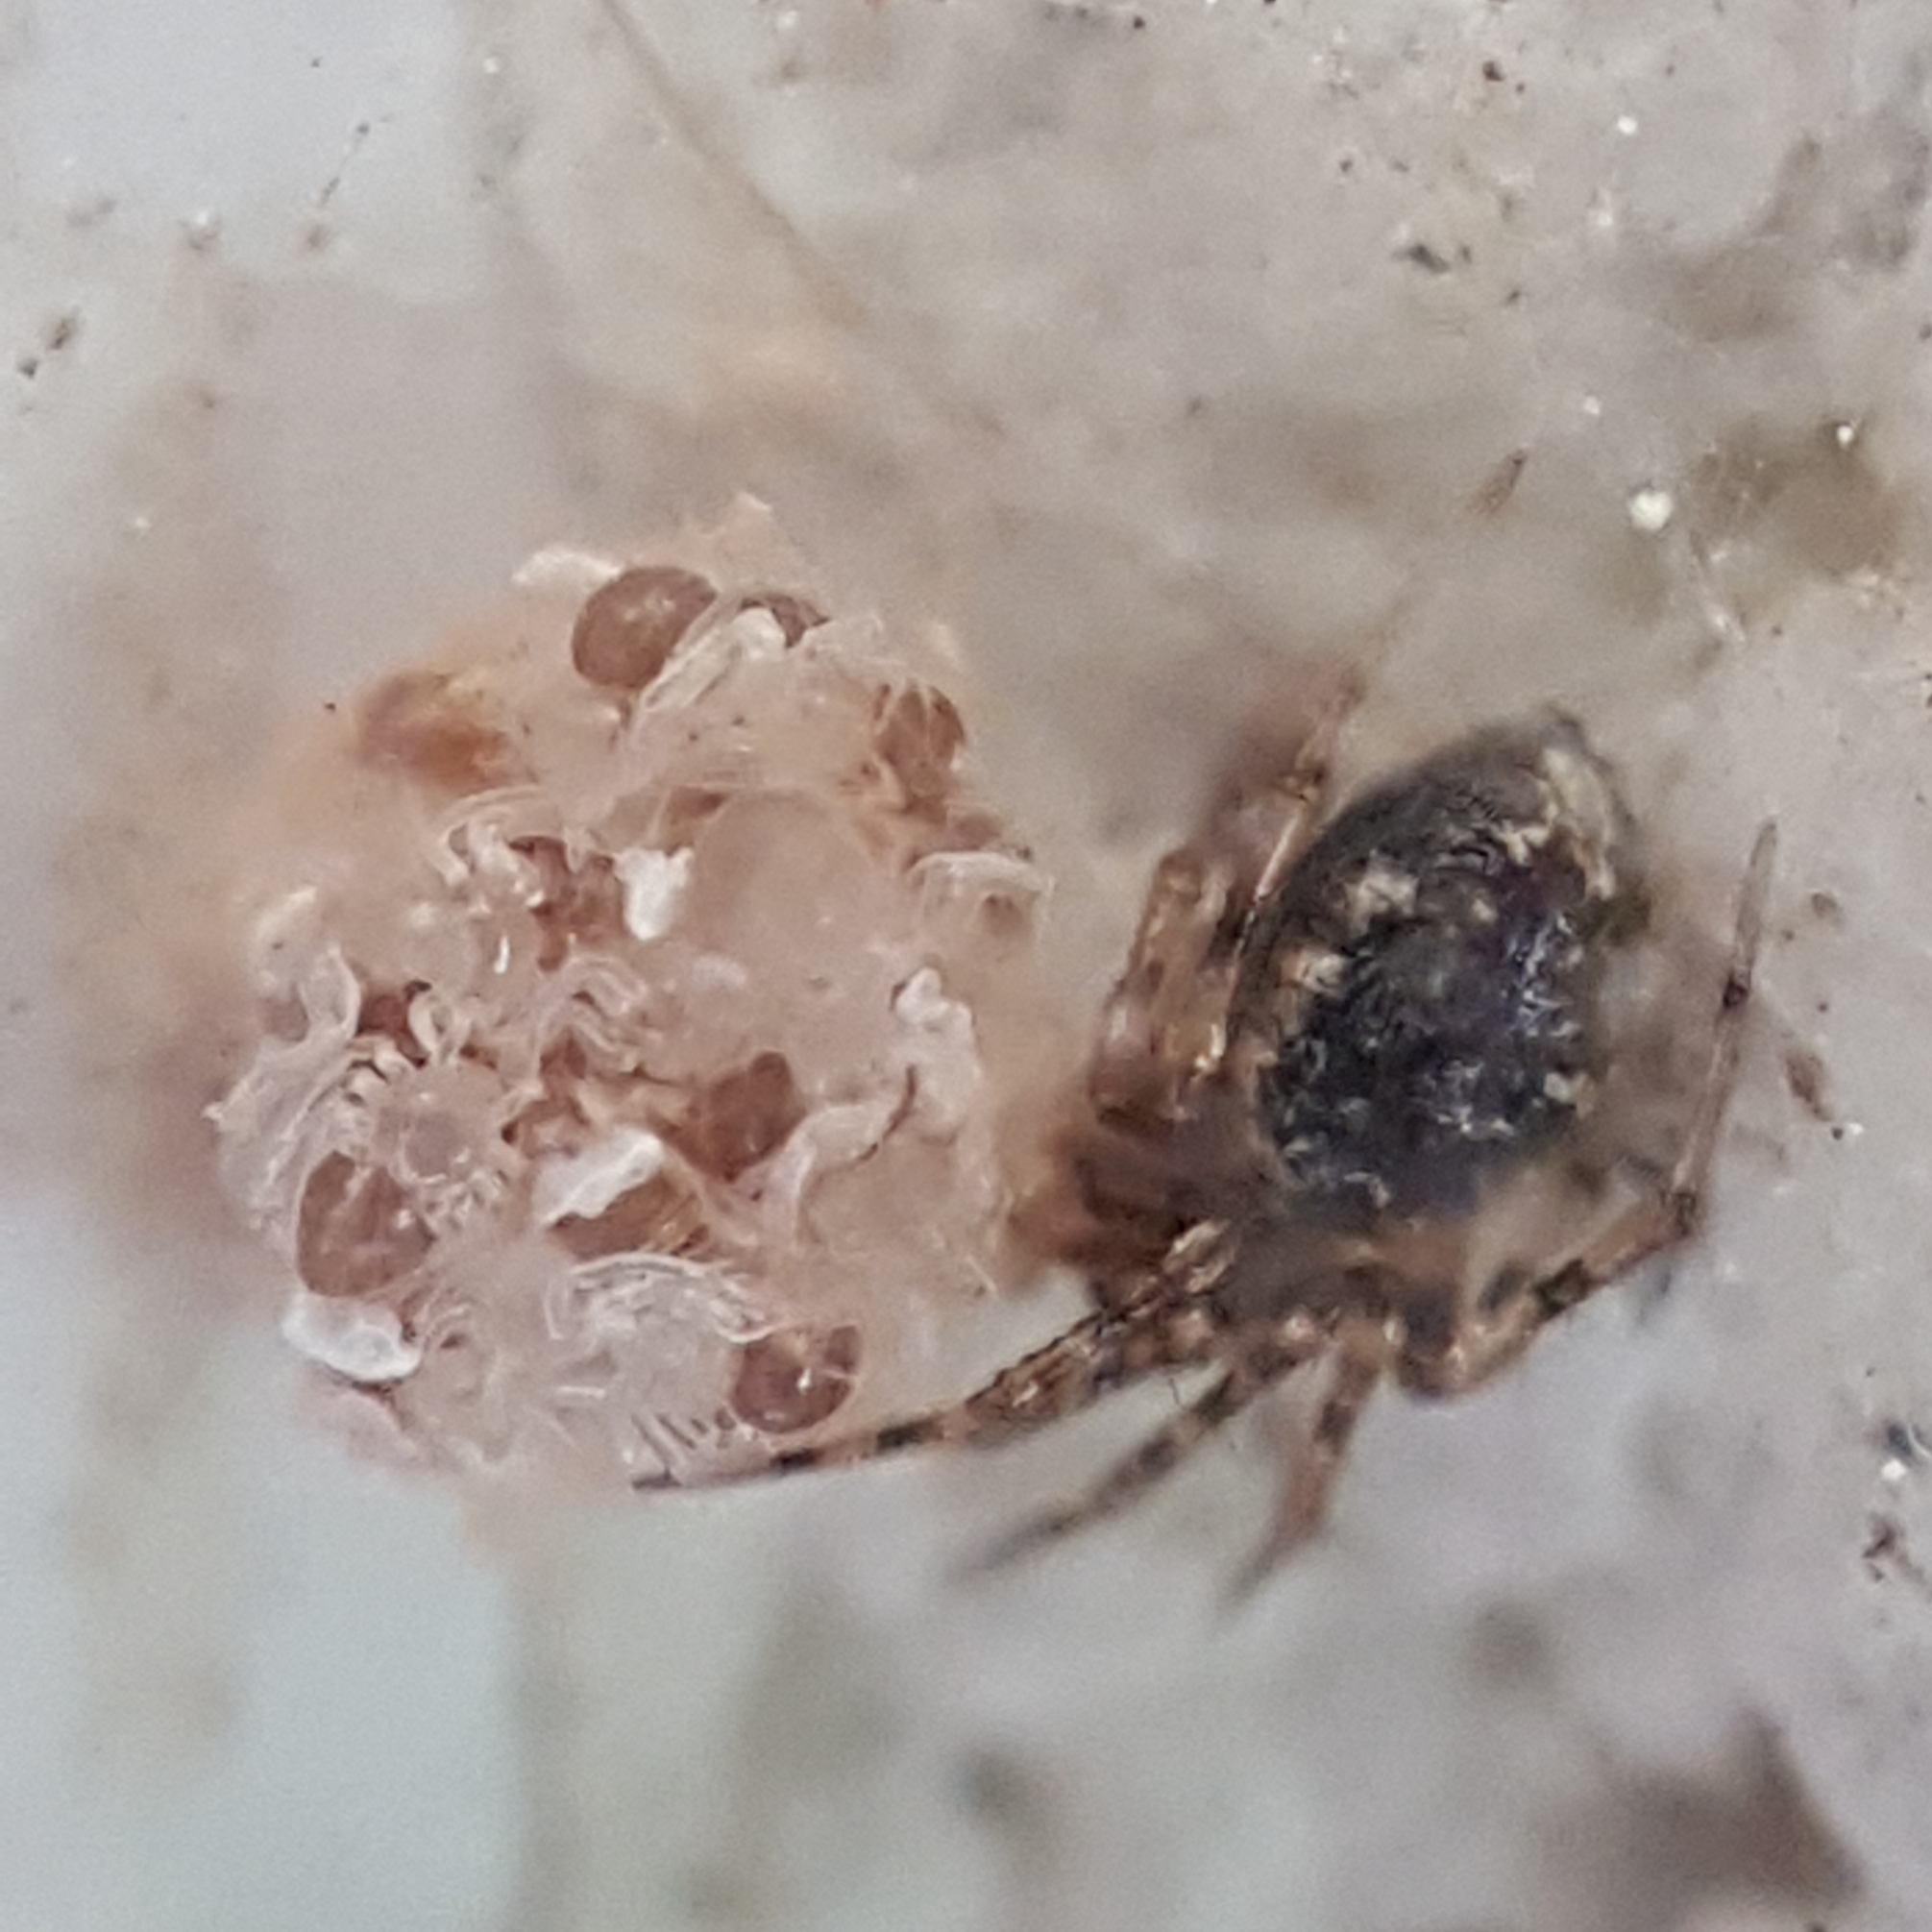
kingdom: Animalia
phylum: Arthropoda
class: Arachnida
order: Araneae
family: Theridiidae
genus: Sardinidion
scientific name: Sardinidion blackwalli
